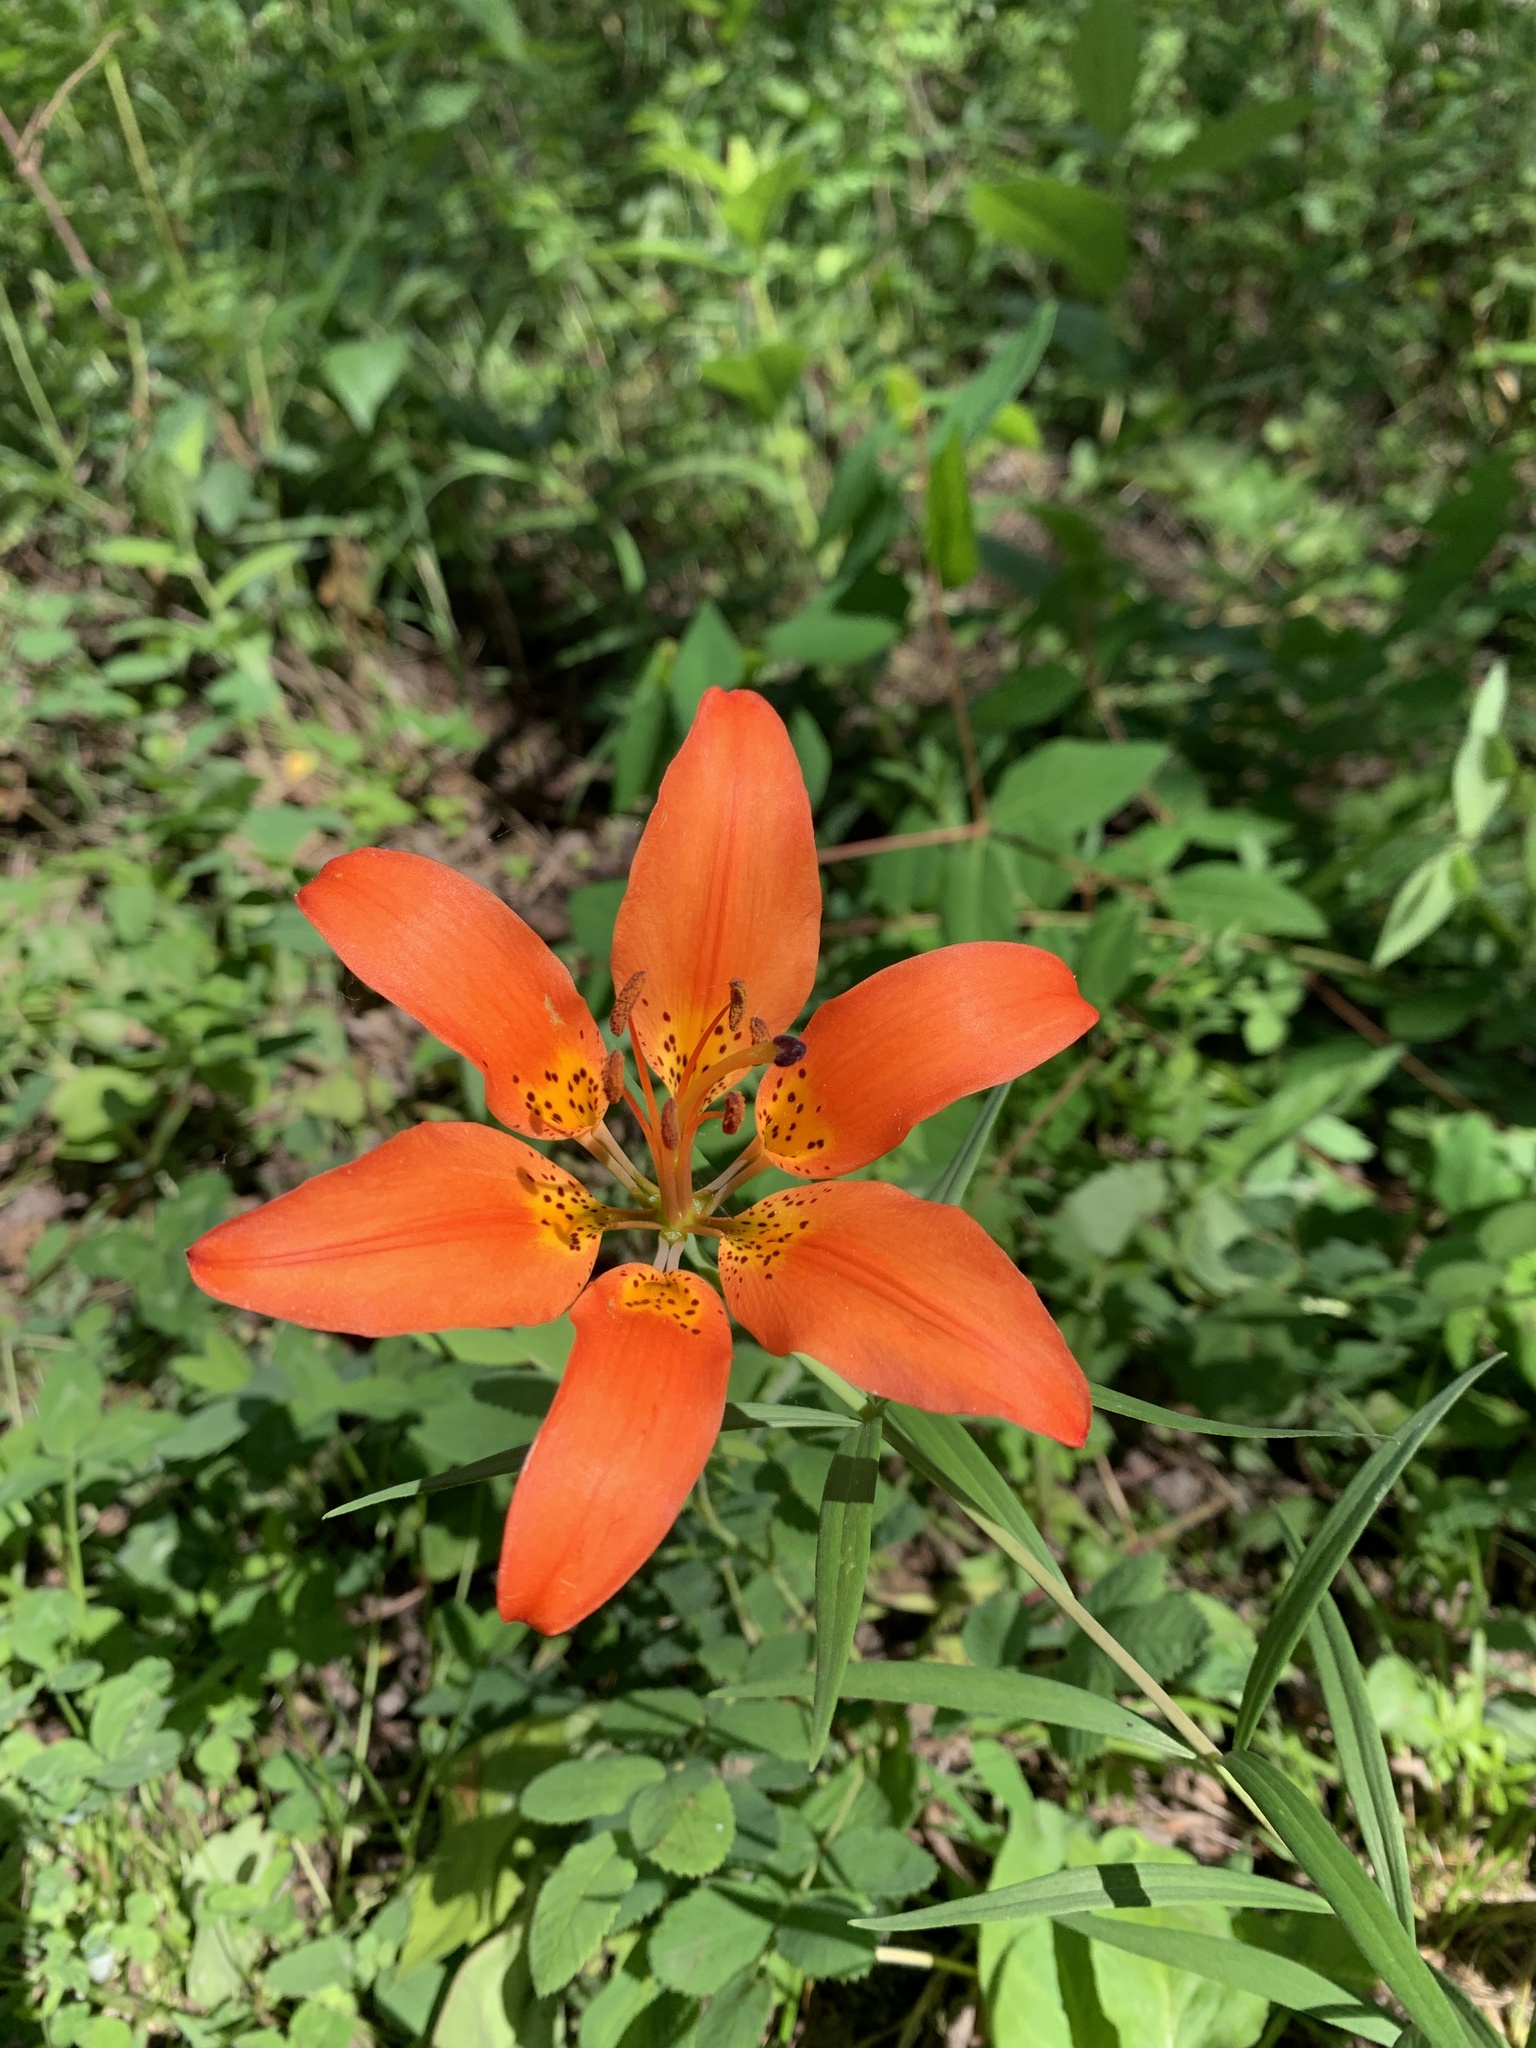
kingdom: Plantae
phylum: Tracheophyta
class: Liliopsida
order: Liliales
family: Liliaceae
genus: Lilium
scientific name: Lilium philadelphicum
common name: Red lily
